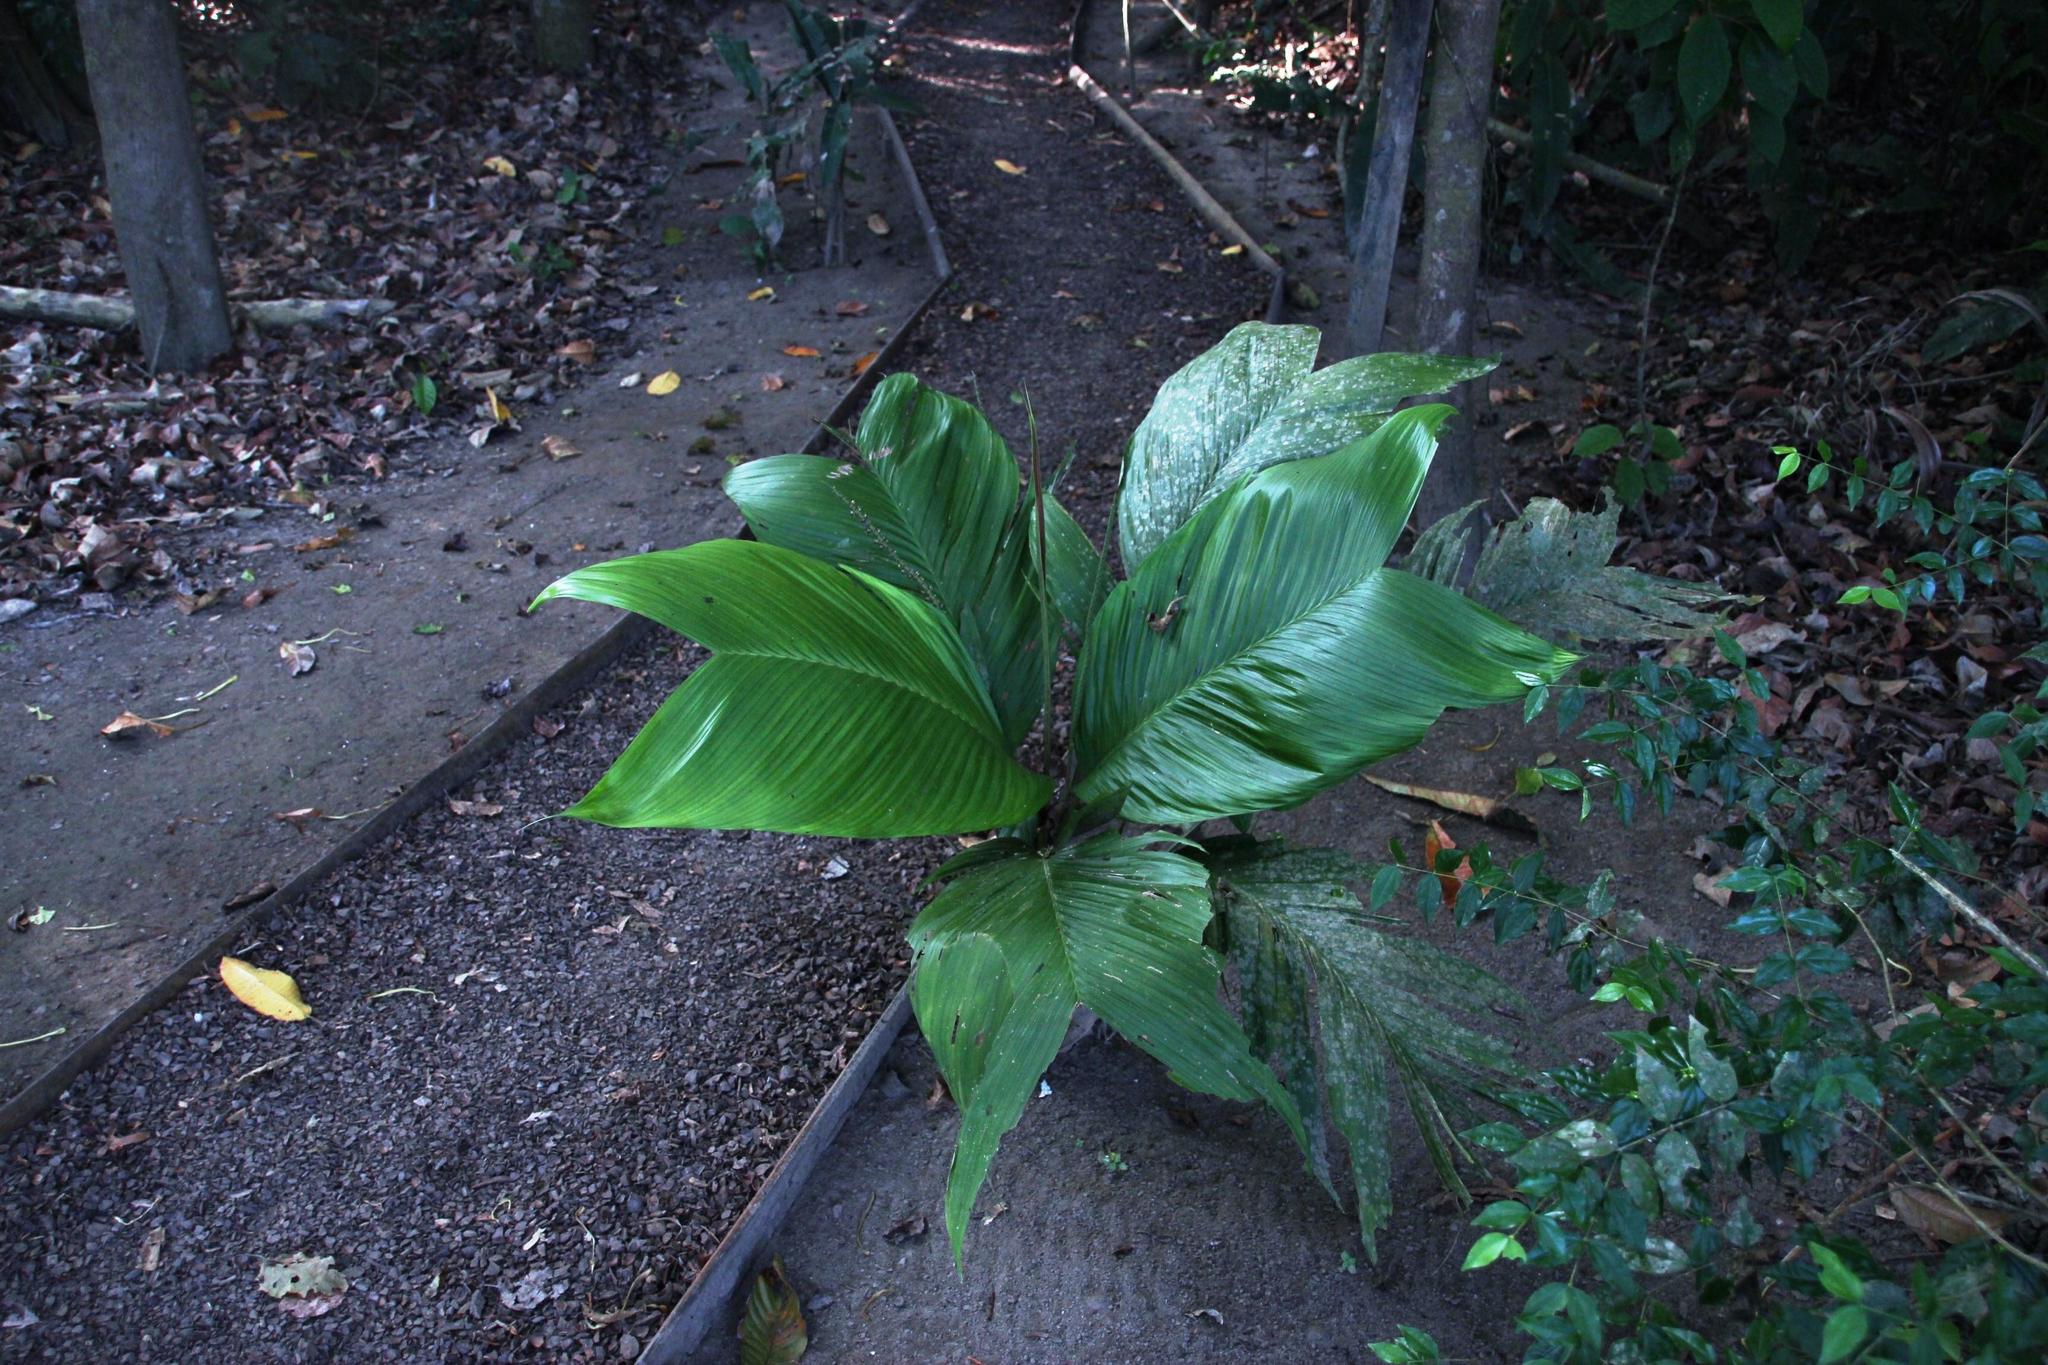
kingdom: Plantae
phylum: Tracheophyta
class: Liliopsida
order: Arecales
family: Arecaceae
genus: Geonoma
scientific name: Geonoma brongniartii
